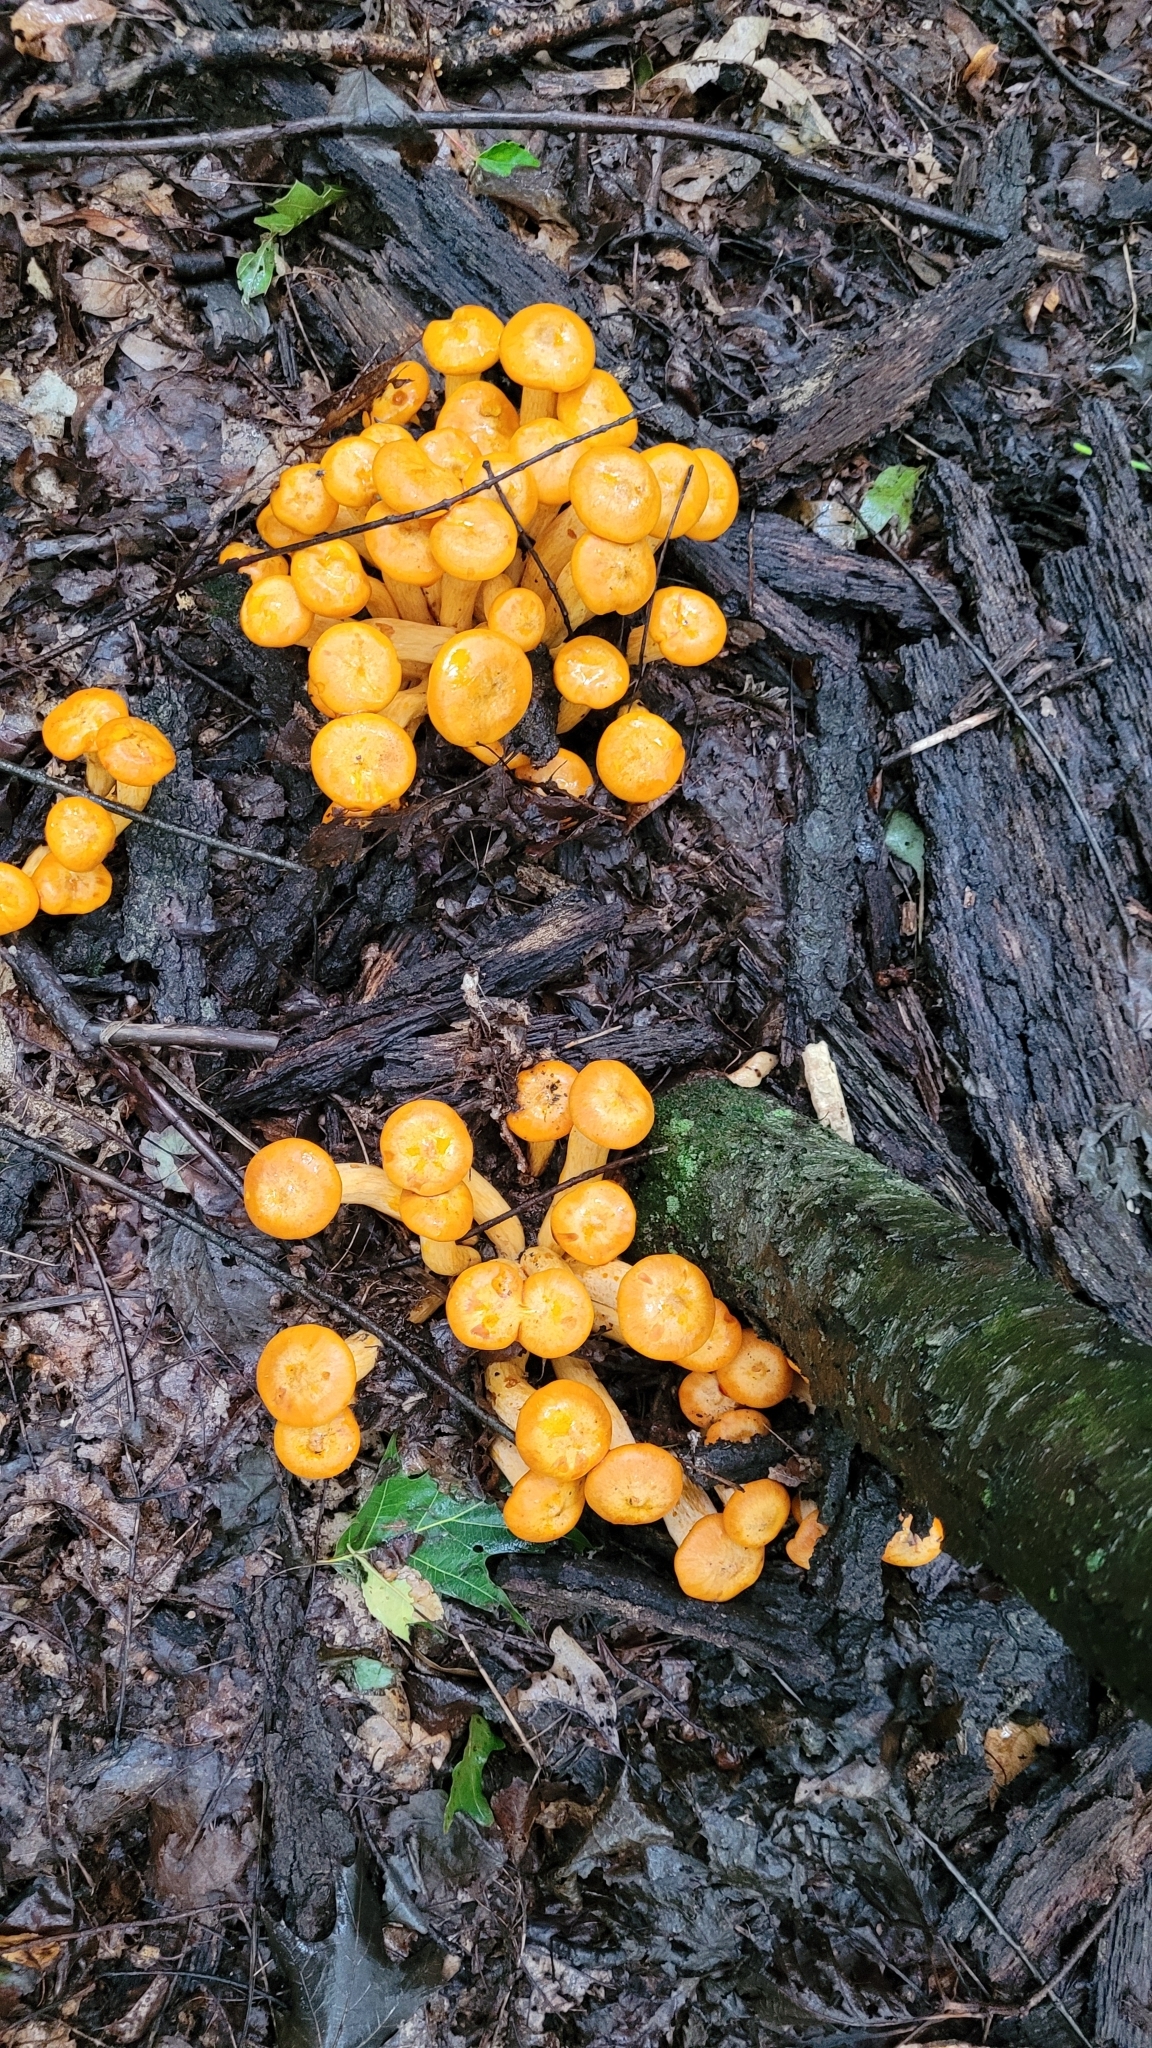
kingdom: Fungi
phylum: Basidiomycota
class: Agaricomycetes
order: Agaricales
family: Omphalotaceae
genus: Omphalotus
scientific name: Omphalotus illudens
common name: Jack o lantern
